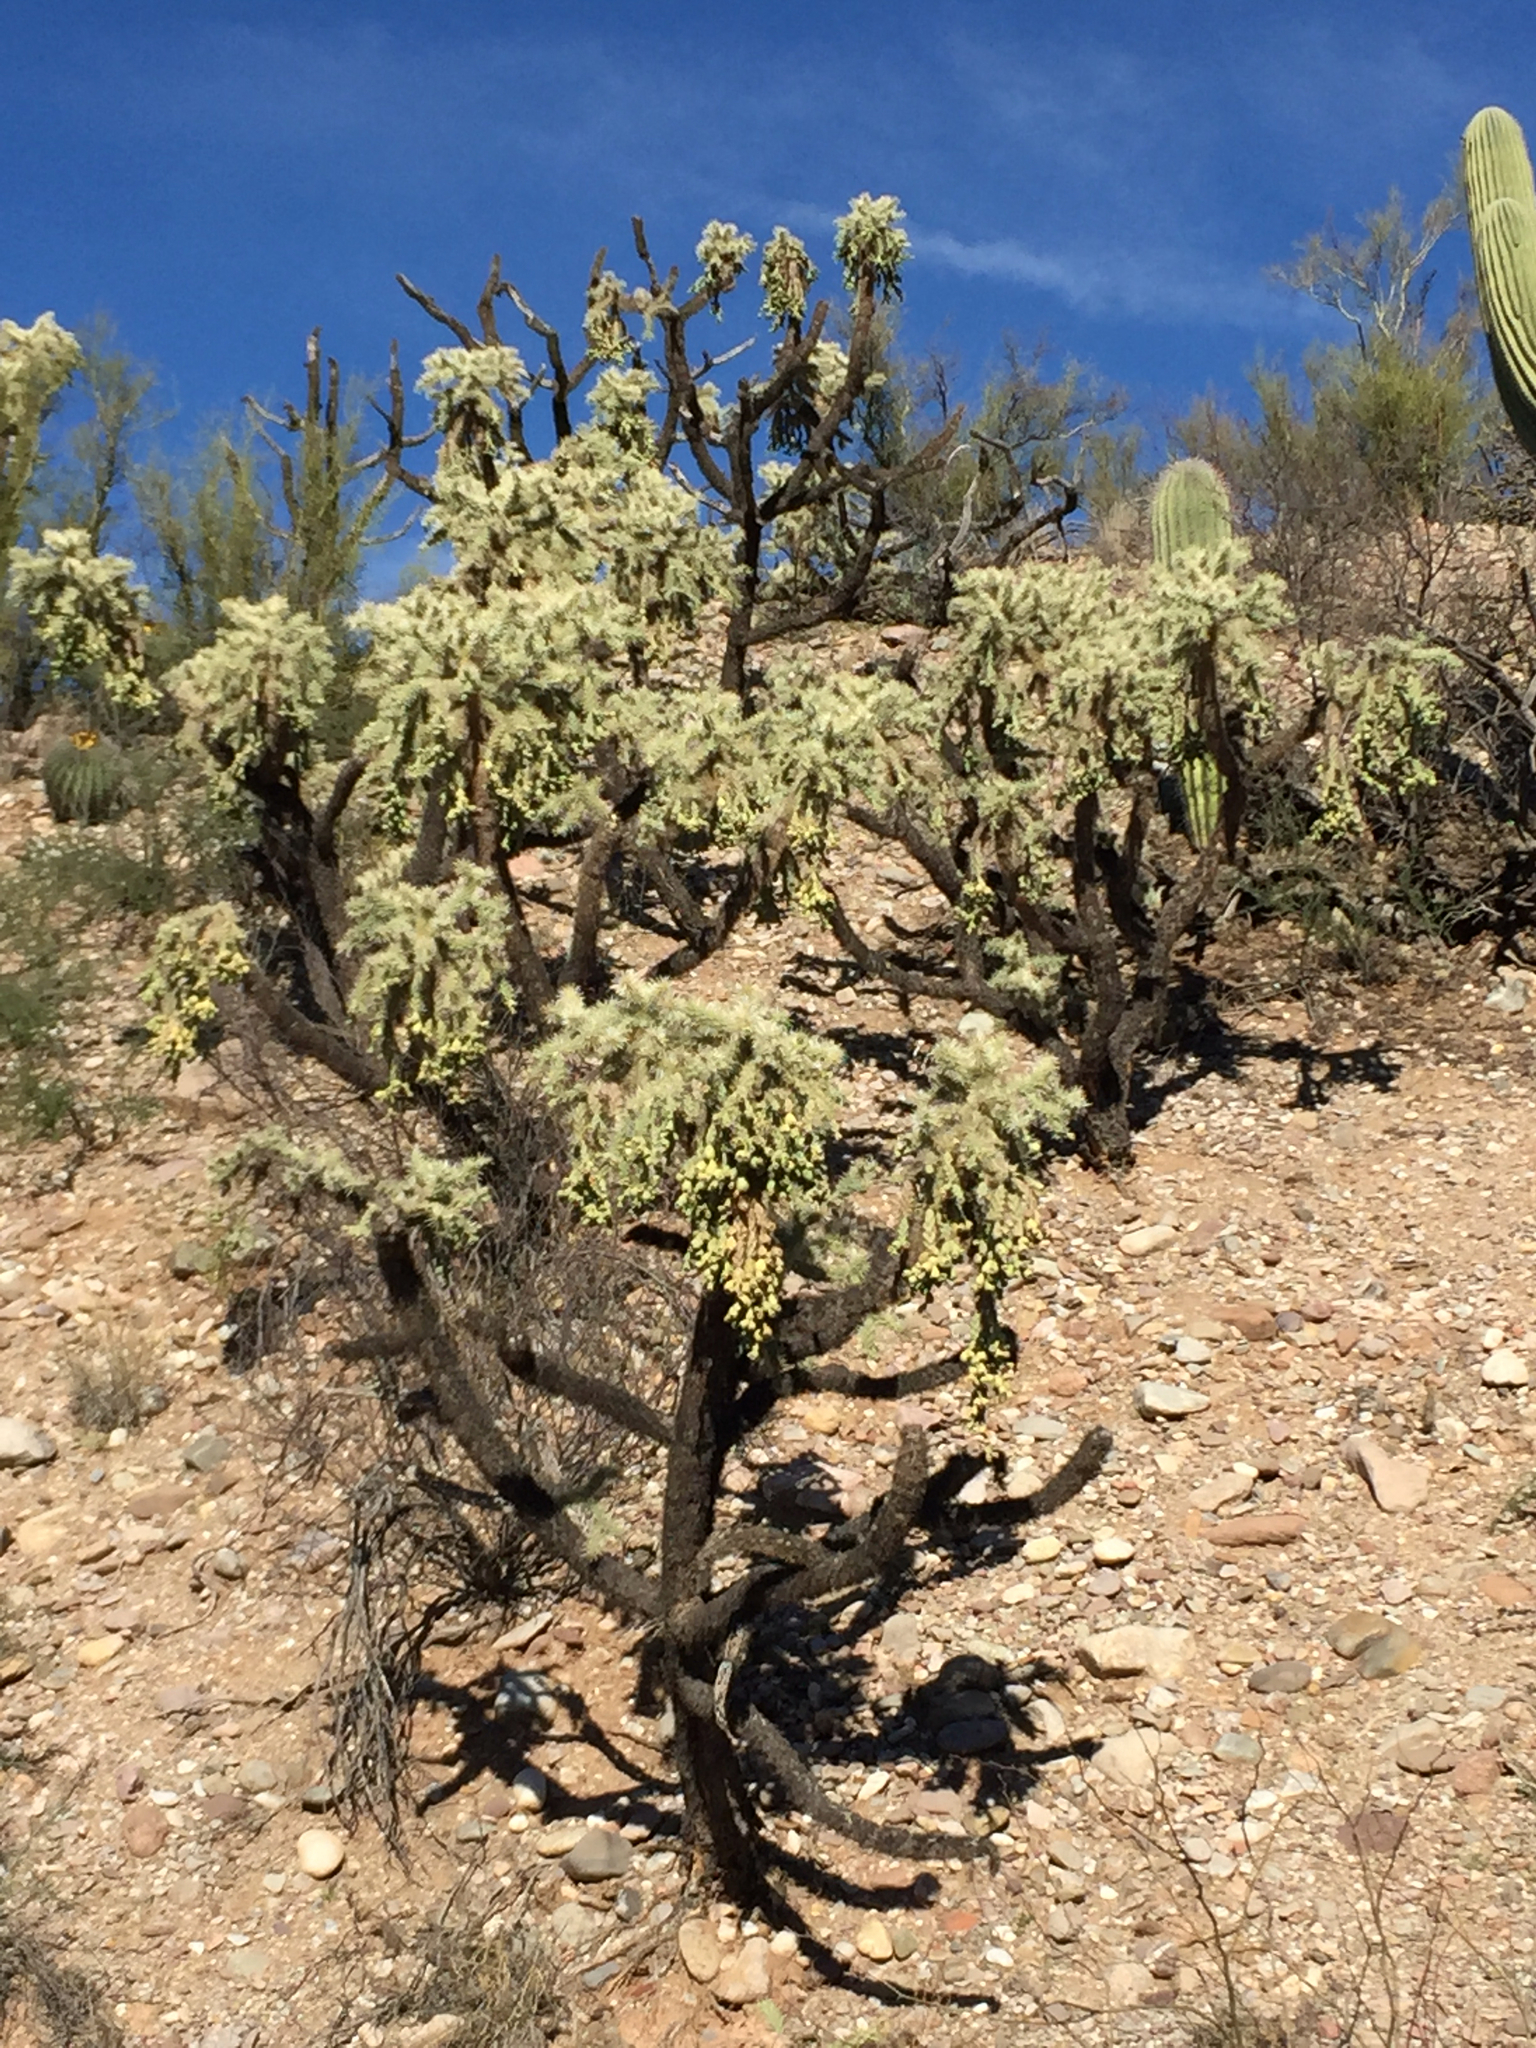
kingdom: Plantae
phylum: Tracheophyta
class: Magnoliopsida
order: Caryophyllales
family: Cactaceae
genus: Cylindropuntia
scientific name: Cylindropuntia fulgida
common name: Jumping cholla
